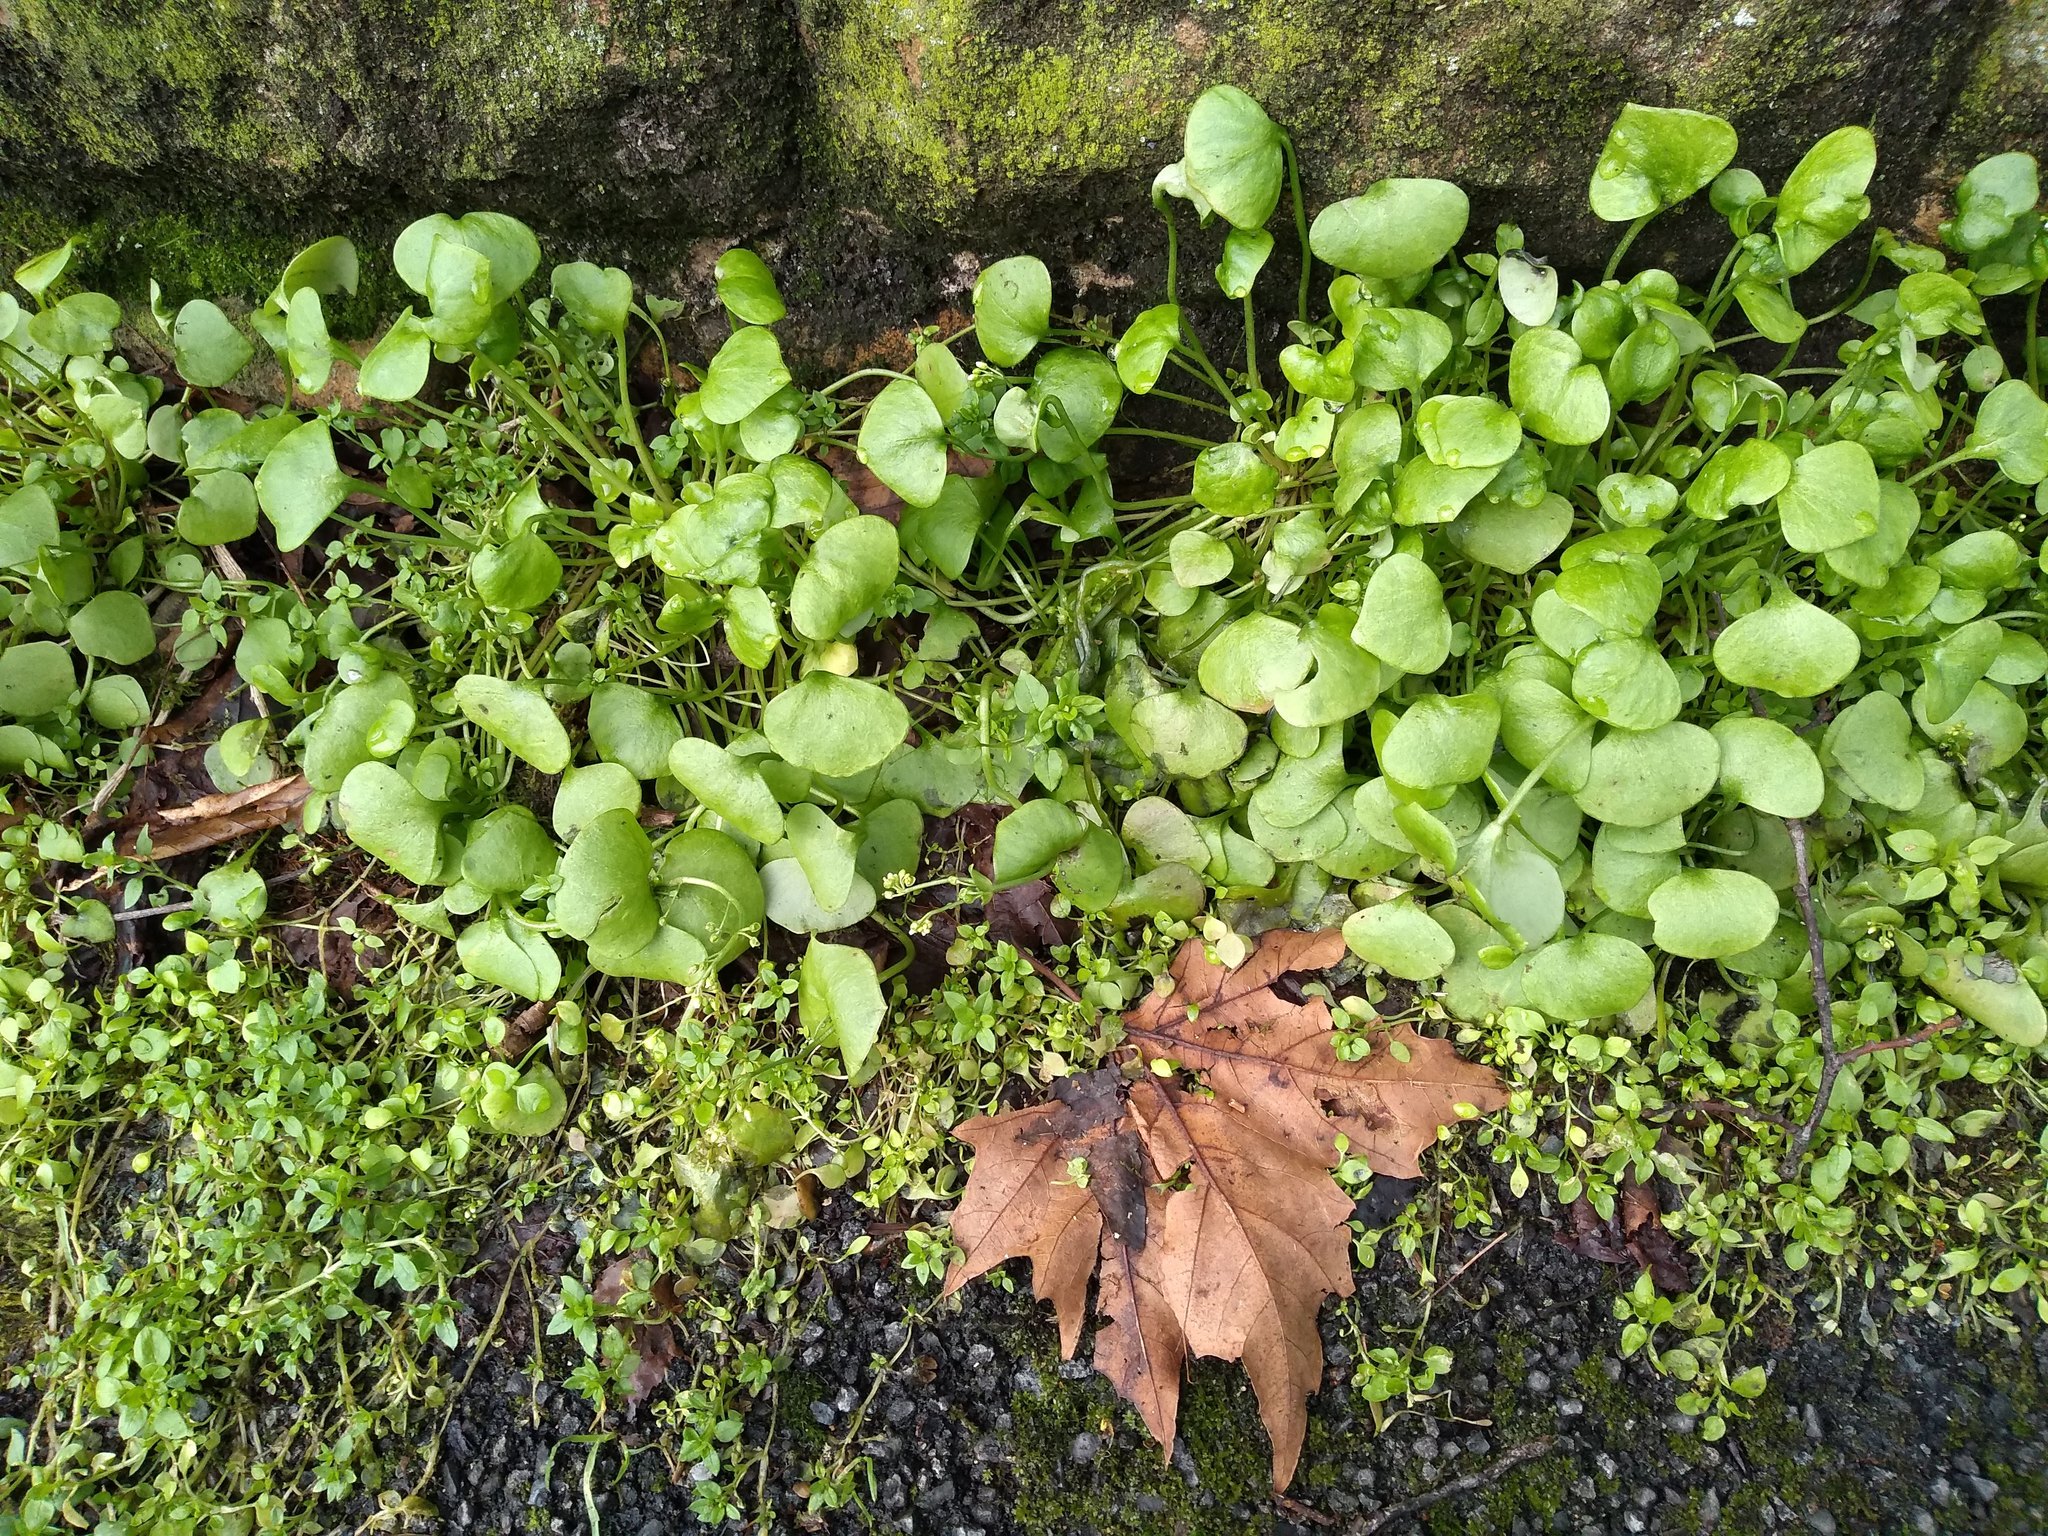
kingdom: Plantae
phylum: Tracheophyta
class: Magnoliopsida
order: Caryophyllales
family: Montiaceae
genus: Claytonia
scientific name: Claytonia perfoliata
